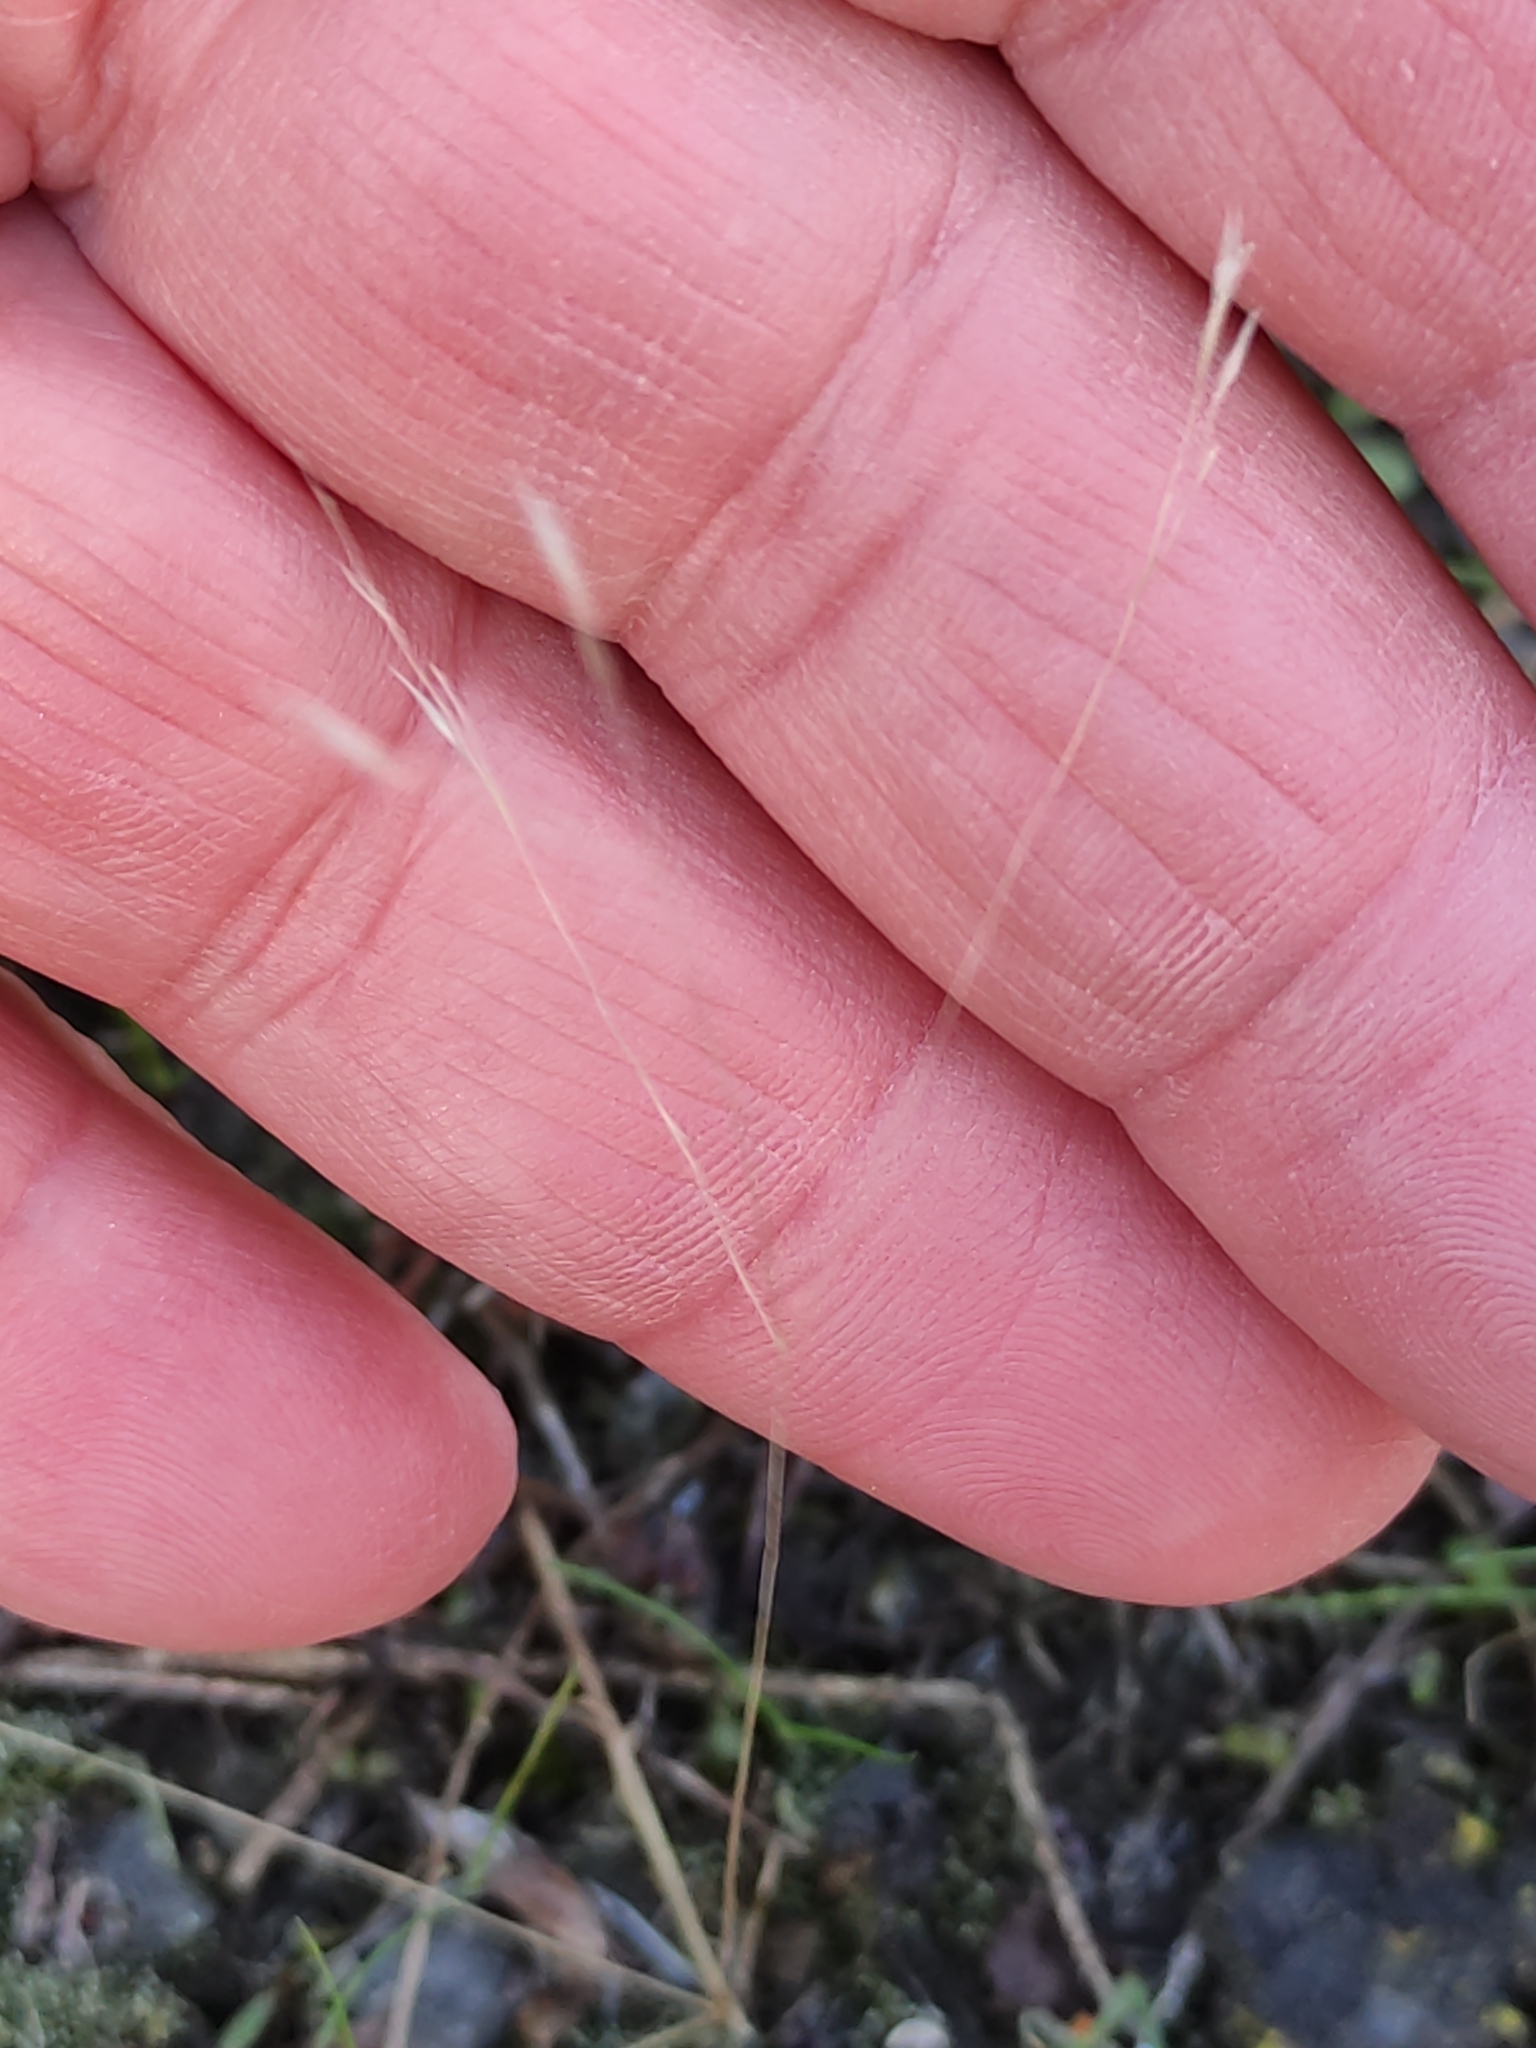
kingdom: Plantae
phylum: Tracheophyta
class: Liliopsida
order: Poales
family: Poaceae
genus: Aira
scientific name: Aira caryophyllea
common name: Silver hairgrass
